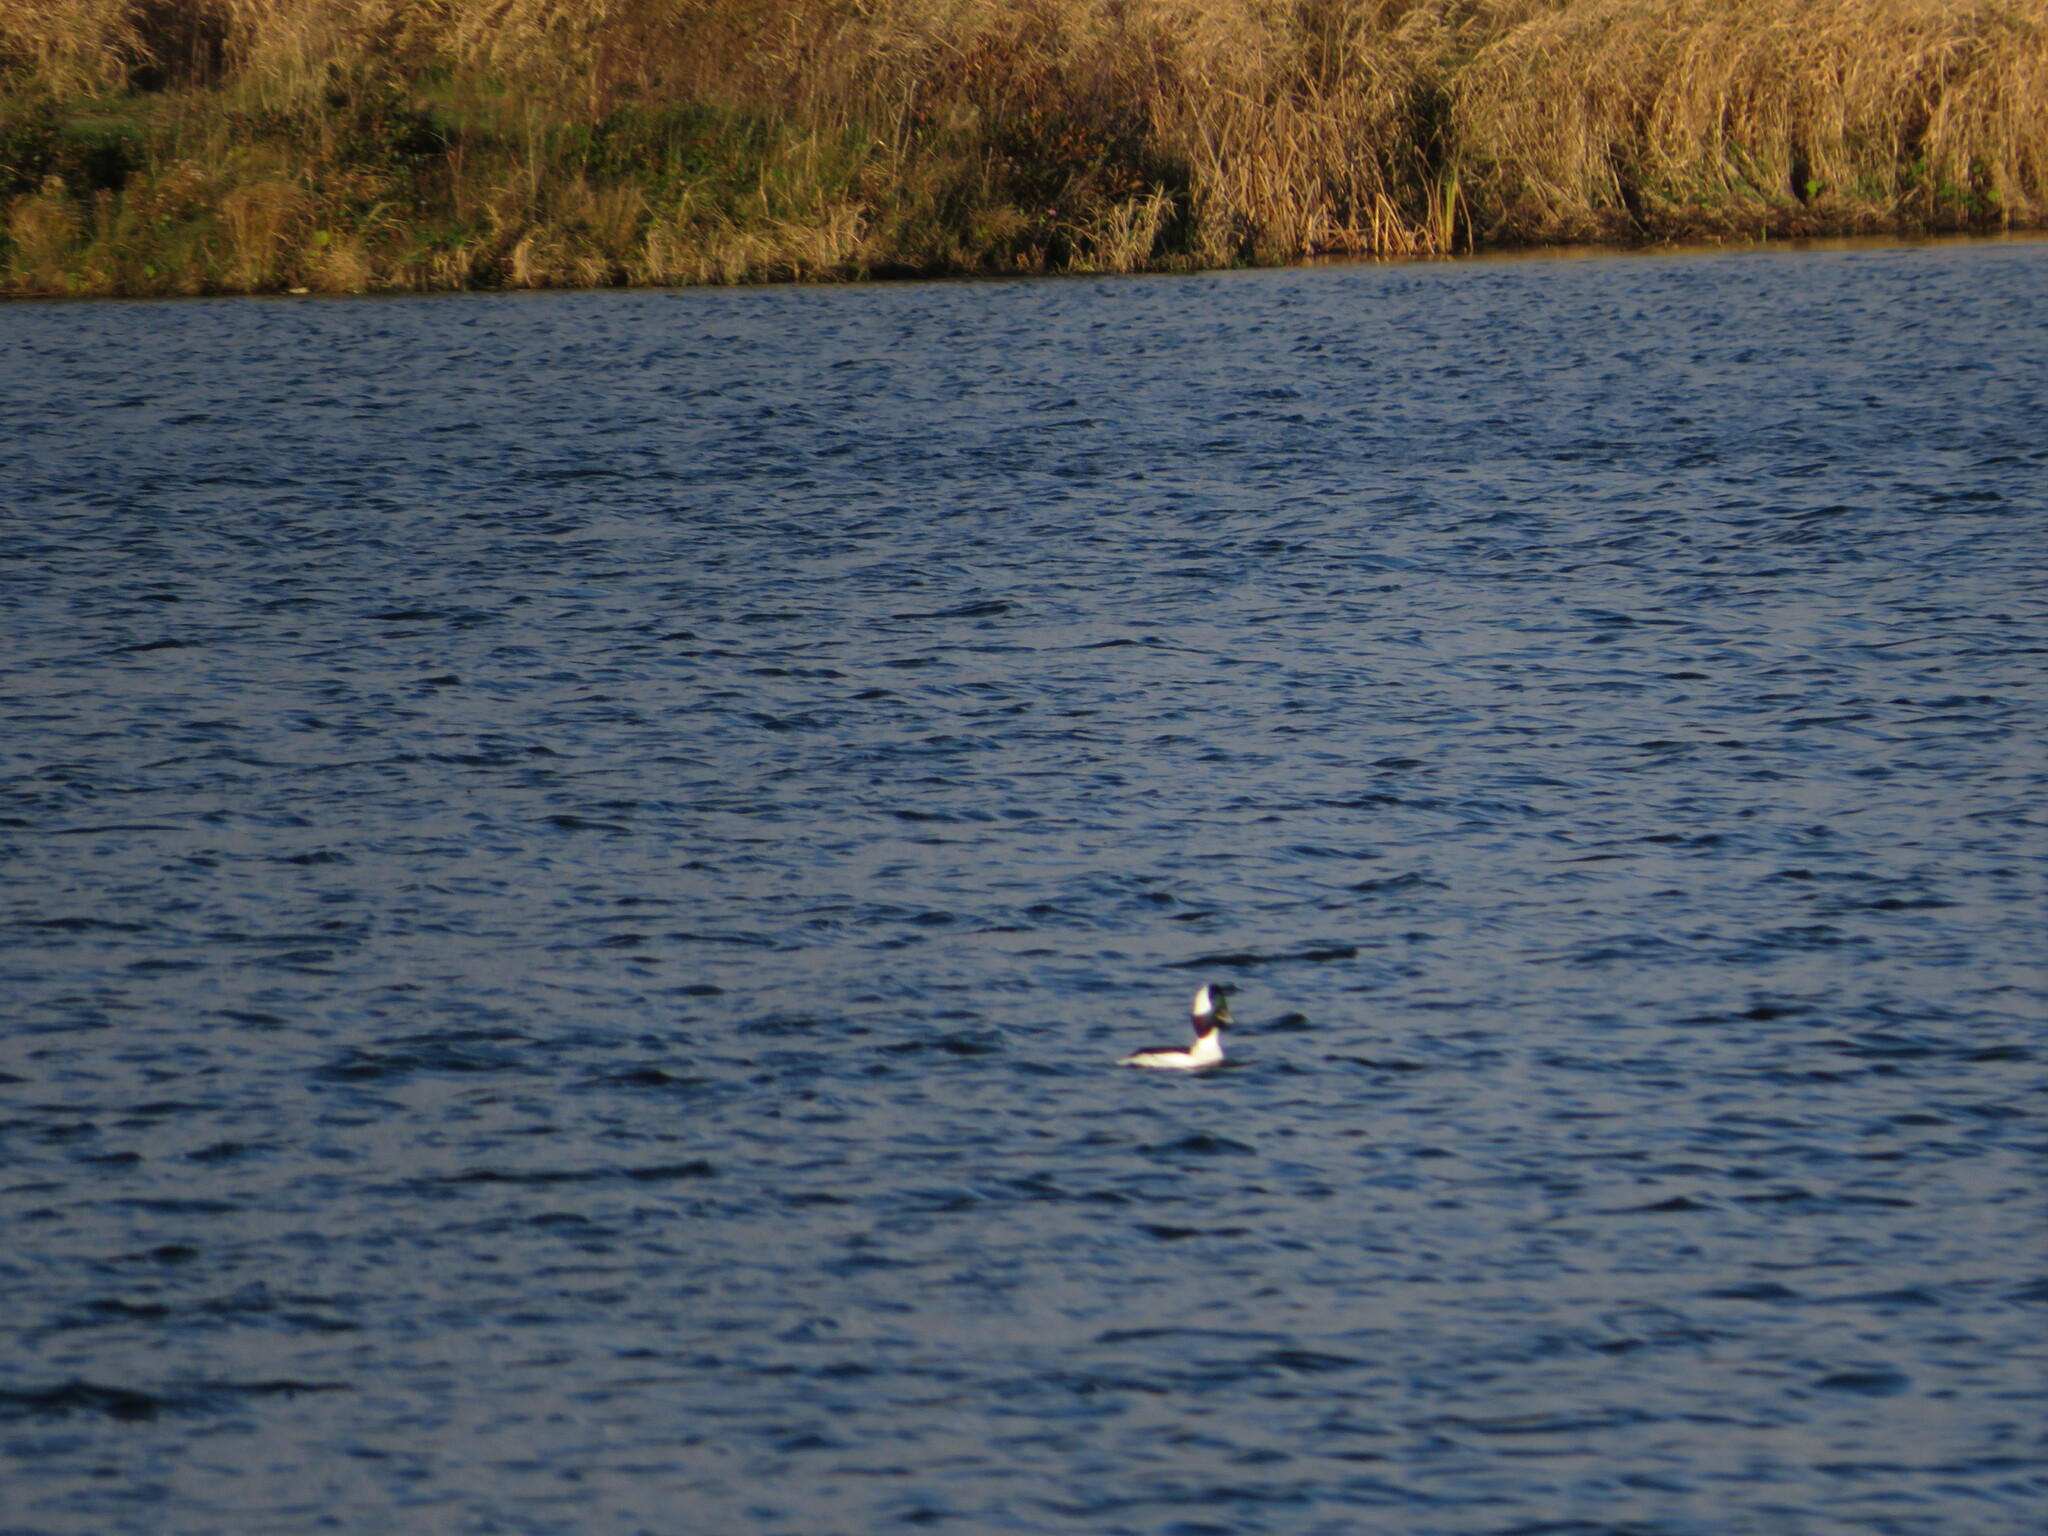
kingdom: Animalia
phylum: Chordata
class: Aves
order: Anseriformes
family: Anatidae
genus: Bucephala
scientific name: Bucephala albeola
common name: Bufflehead
